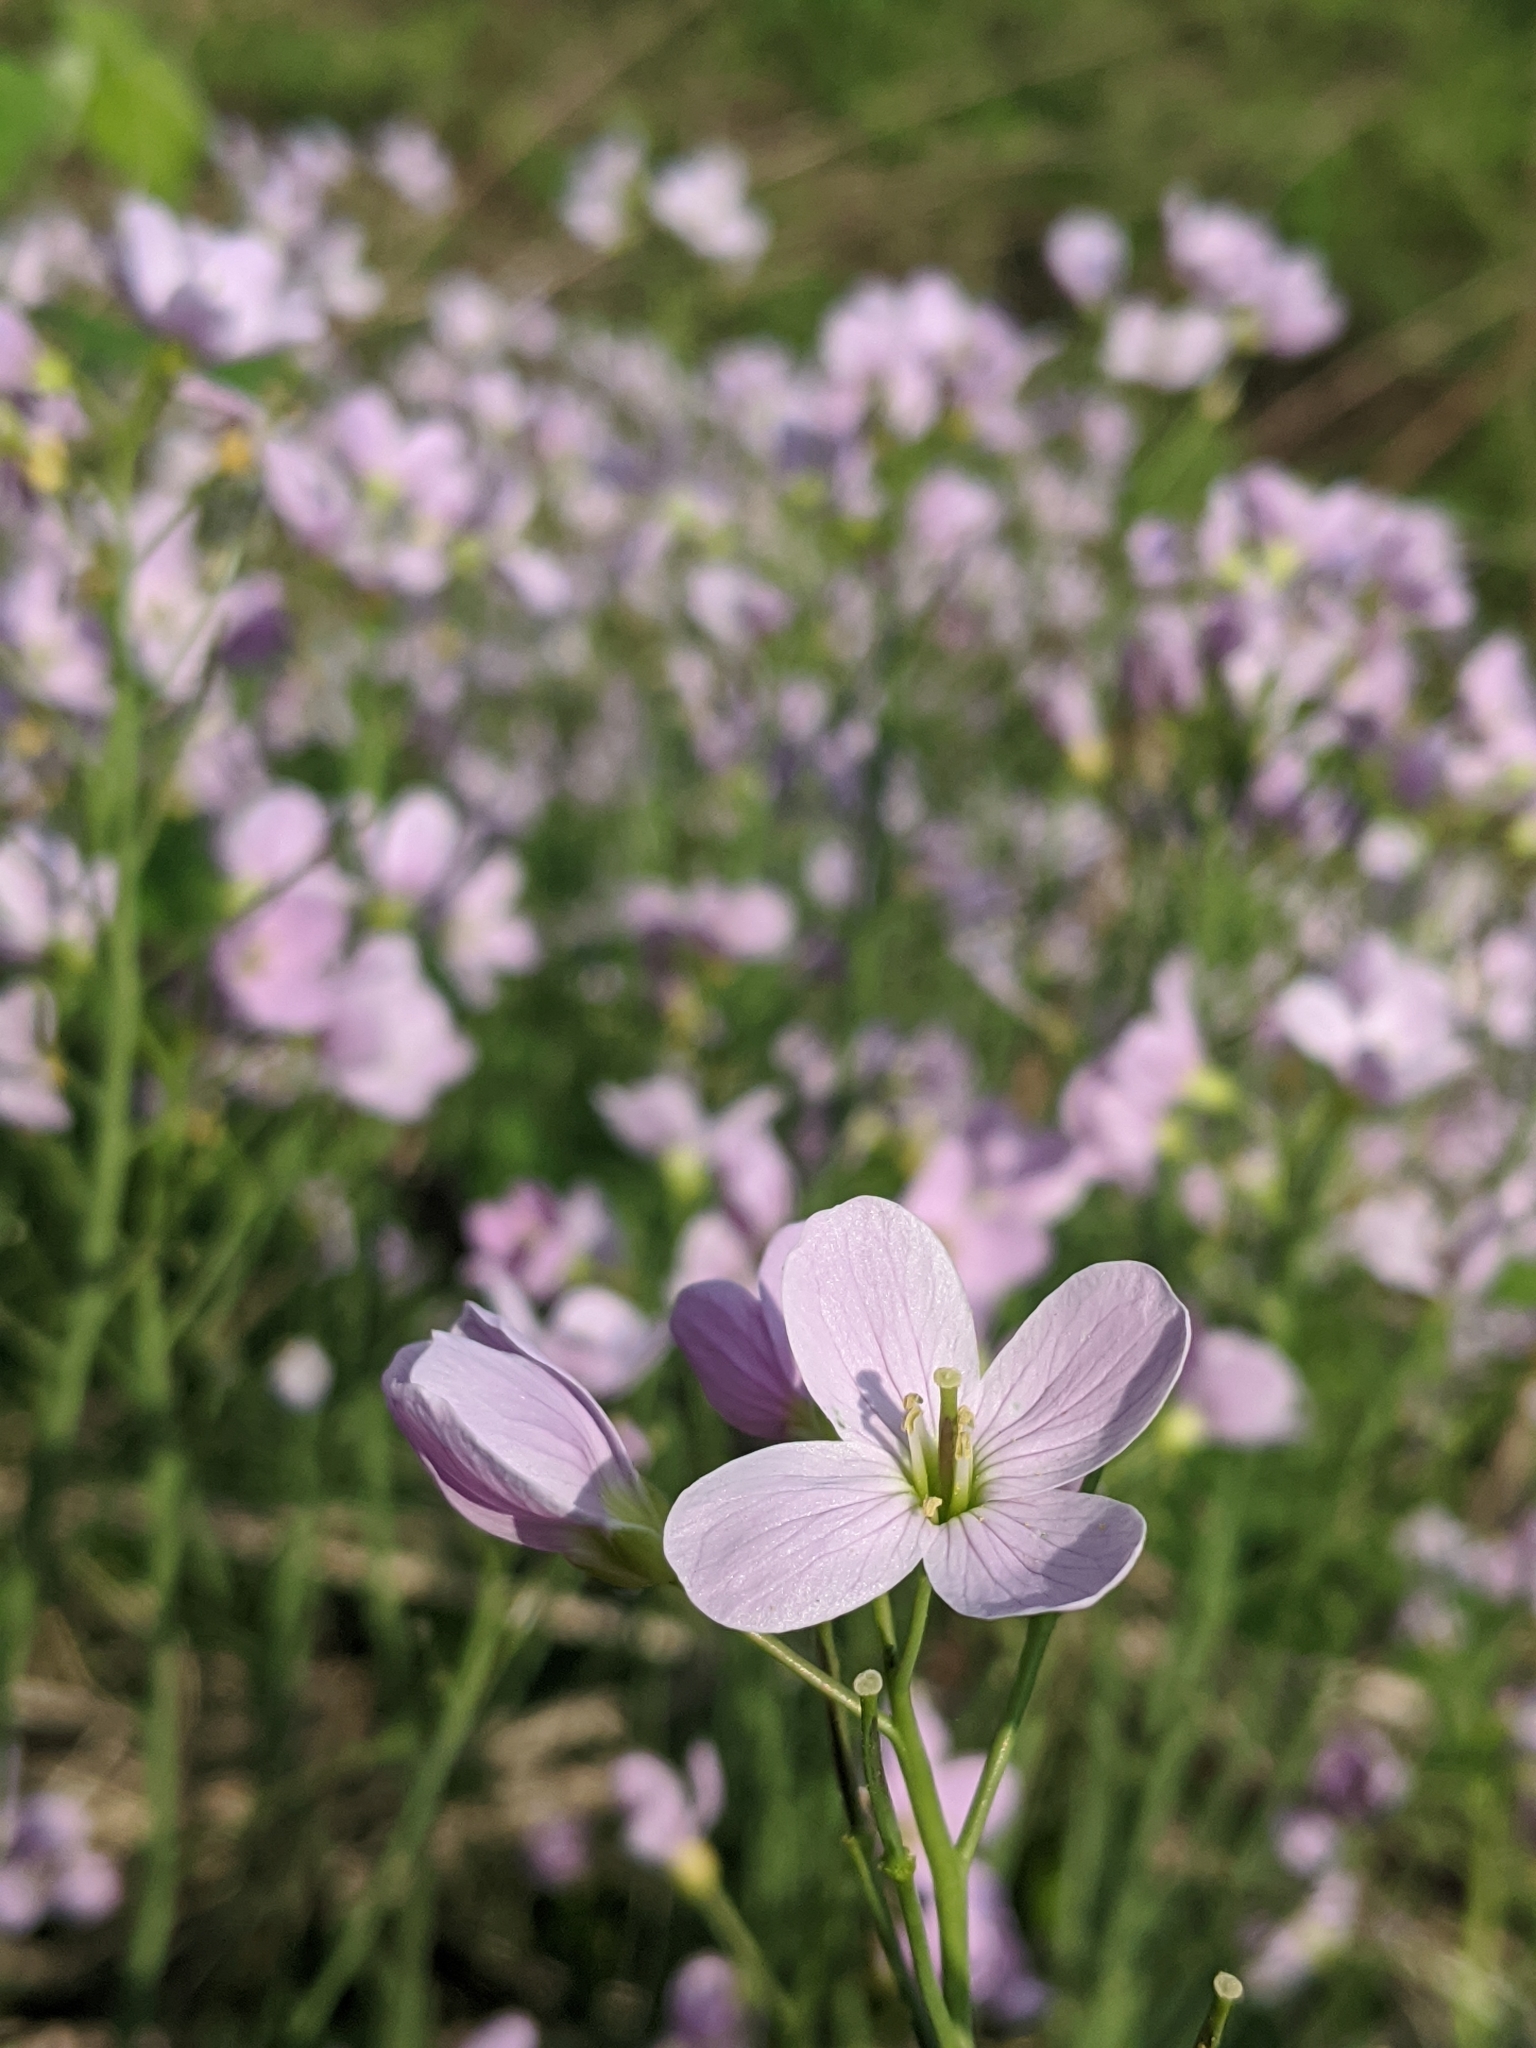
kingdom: Plantae
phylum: Tracheophyta
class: Magnoliopsida
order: Brassicales
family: Brassicaceae
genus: Cardamine
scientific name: Cardamine pratensis
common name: Cuckoo flower
